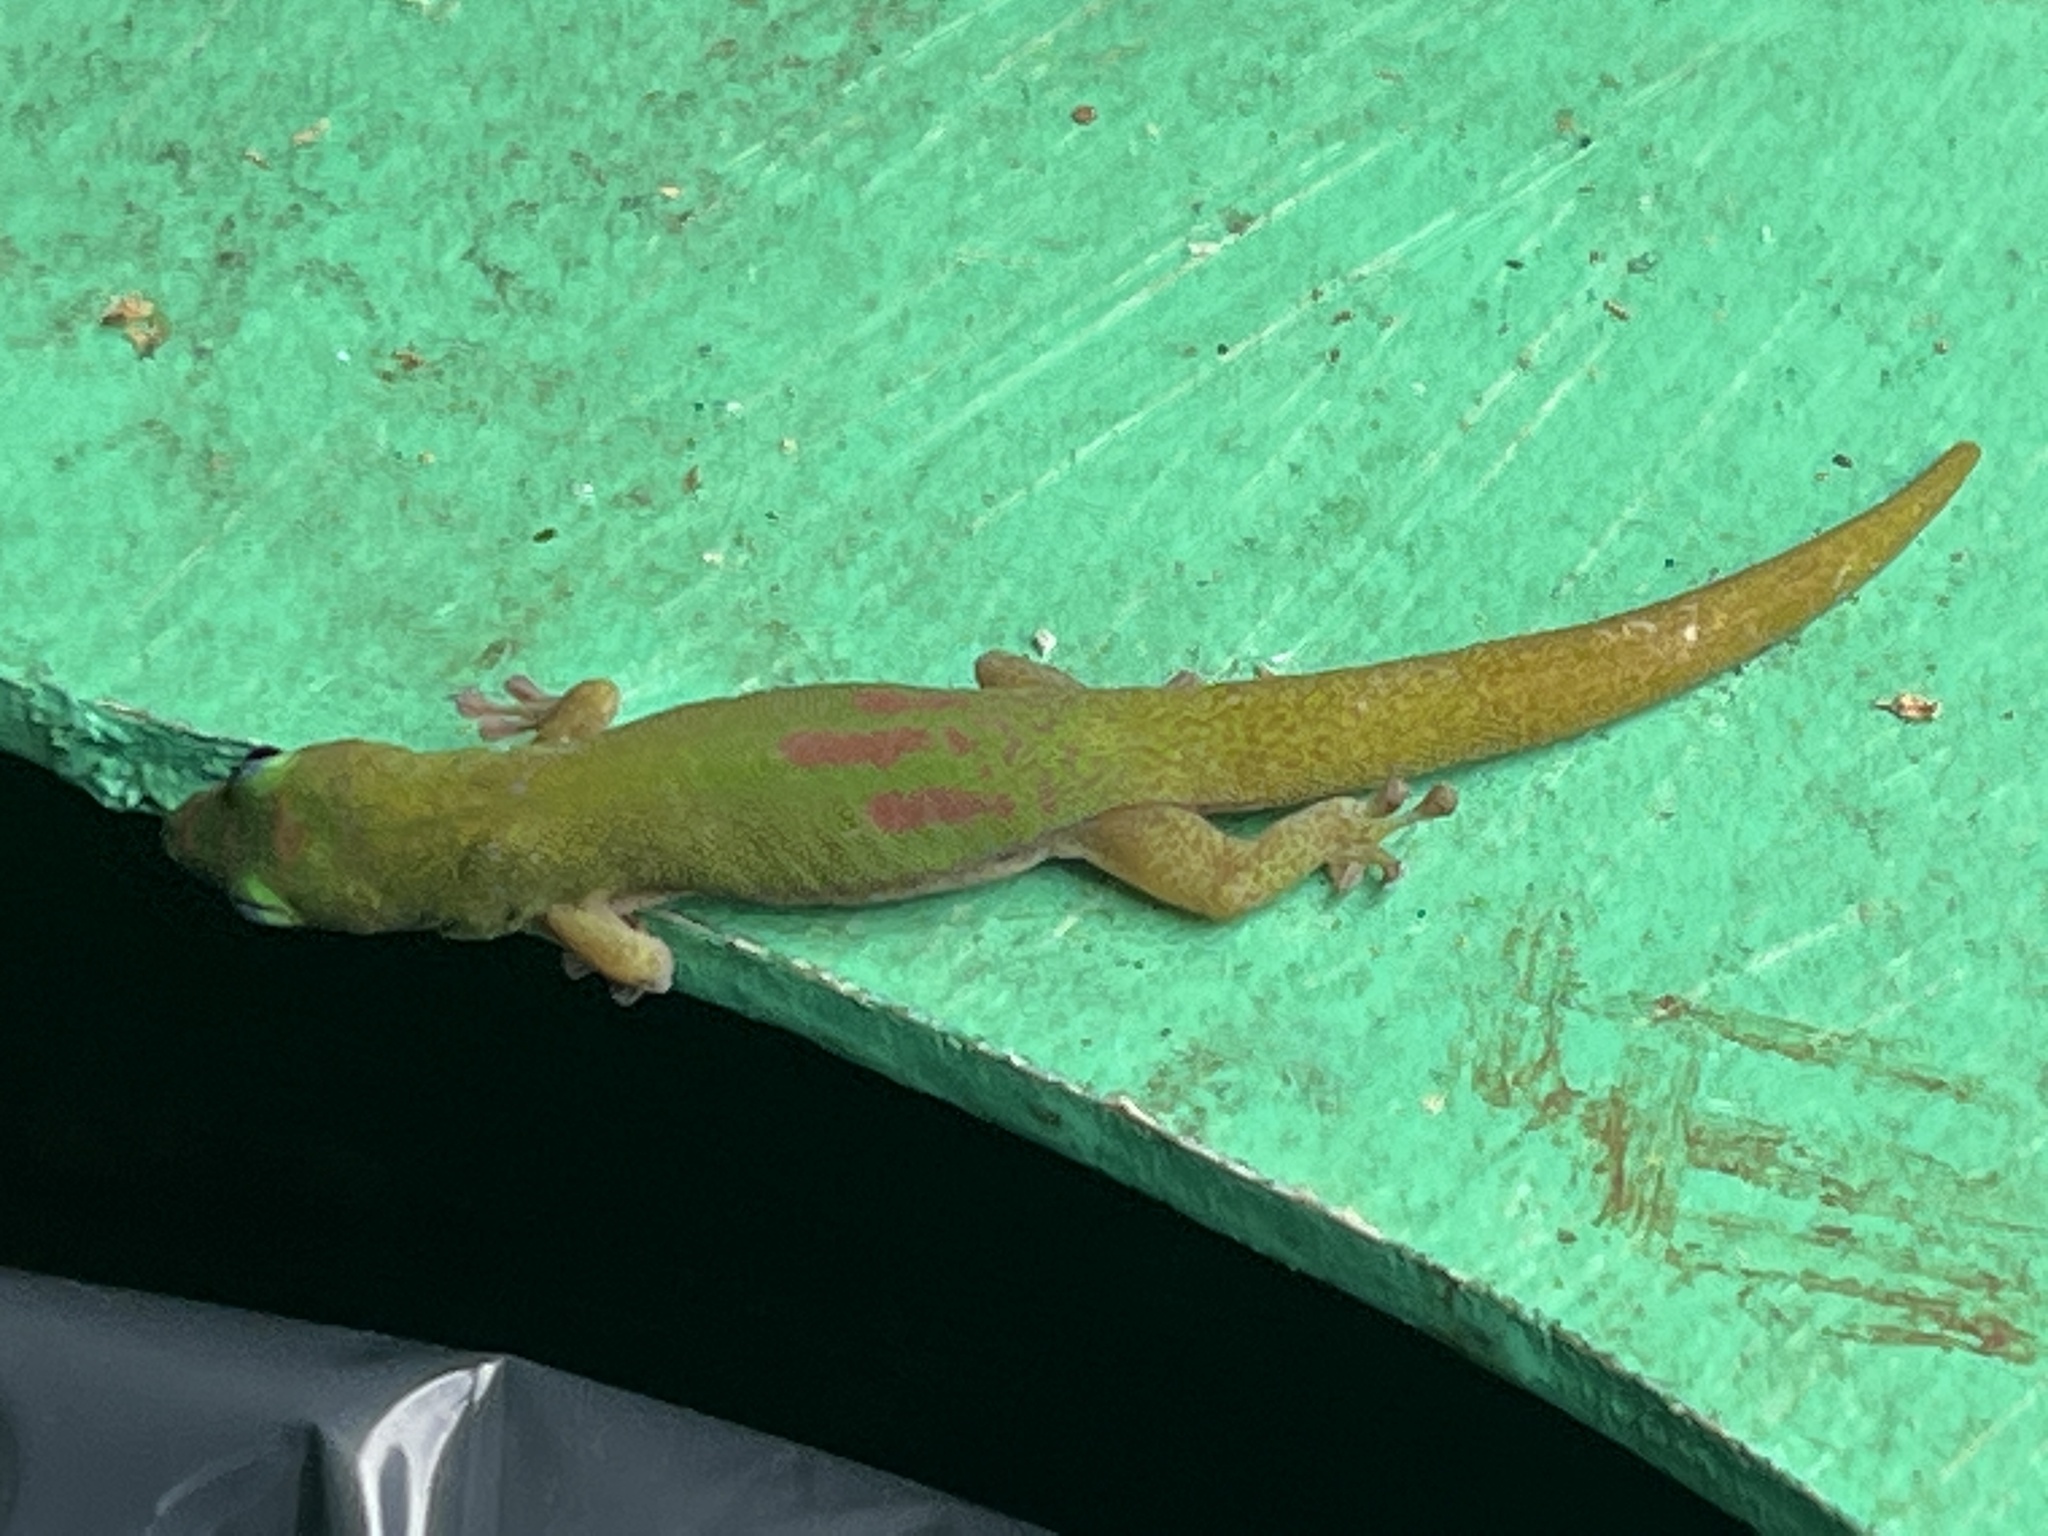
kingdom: Animalia
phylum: Chordata
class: Squamata
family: Gekkonidae
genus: Phelsuma
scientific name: Phelsuma laticauda
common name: Gold dust day gecko
